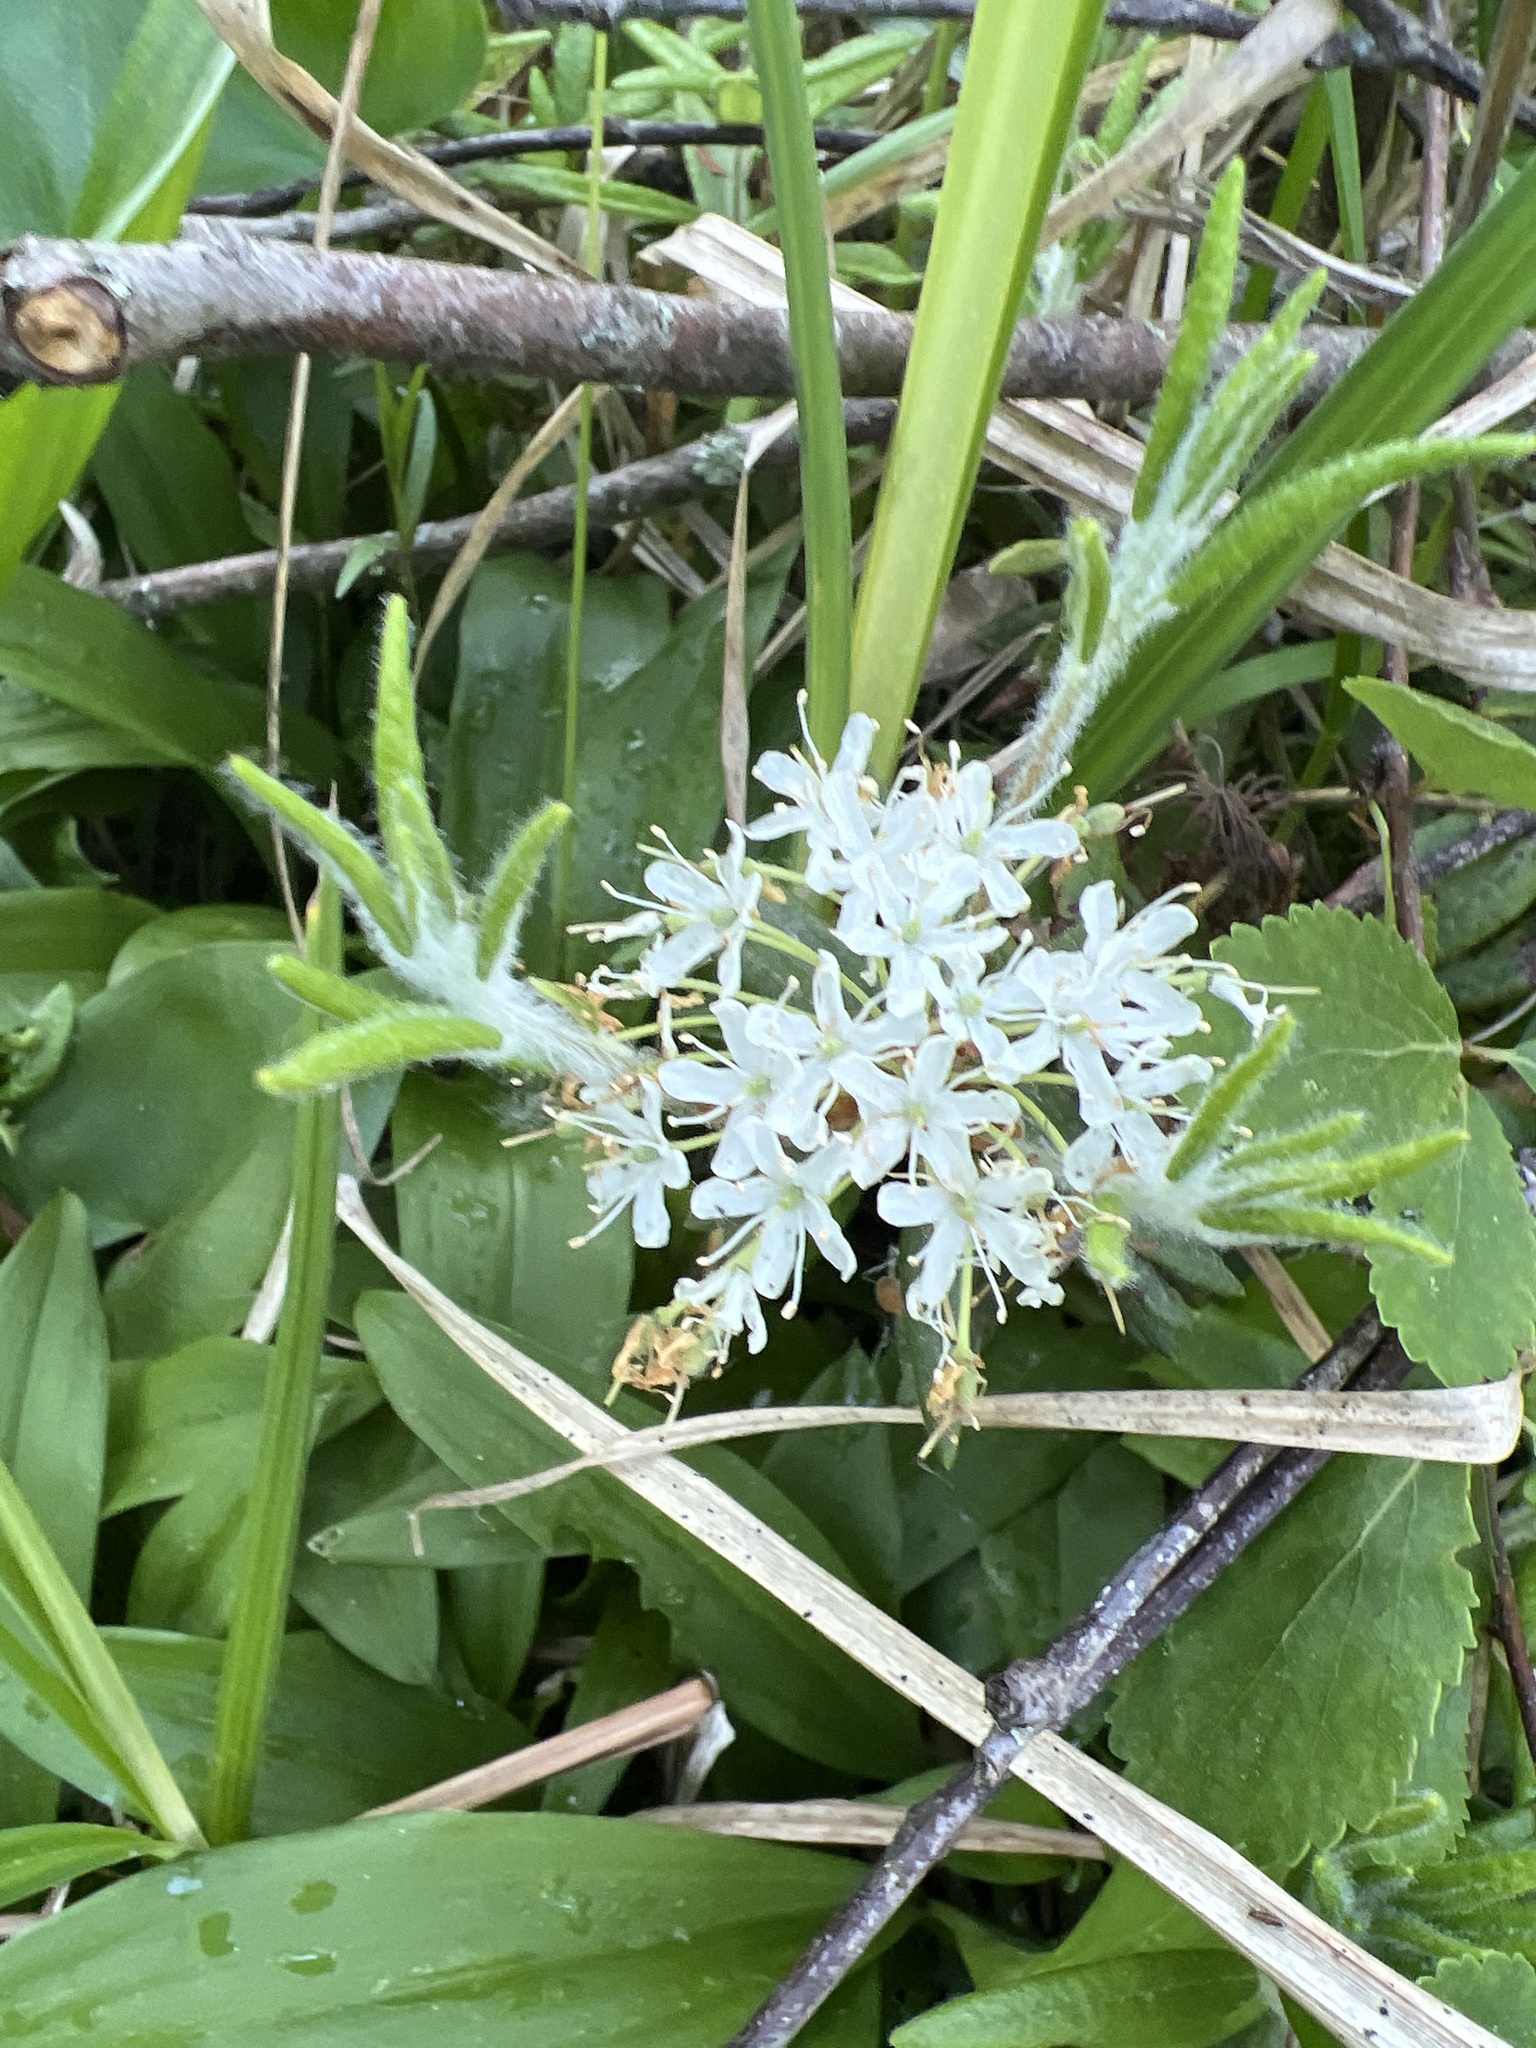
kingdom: Plantae
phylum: Tracheophyta
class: Magnoliopsida
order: Ericales
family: Ericaceae
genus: Rhododendron
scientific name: Rhododendron groenlandicum
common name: Bog labrador tea
